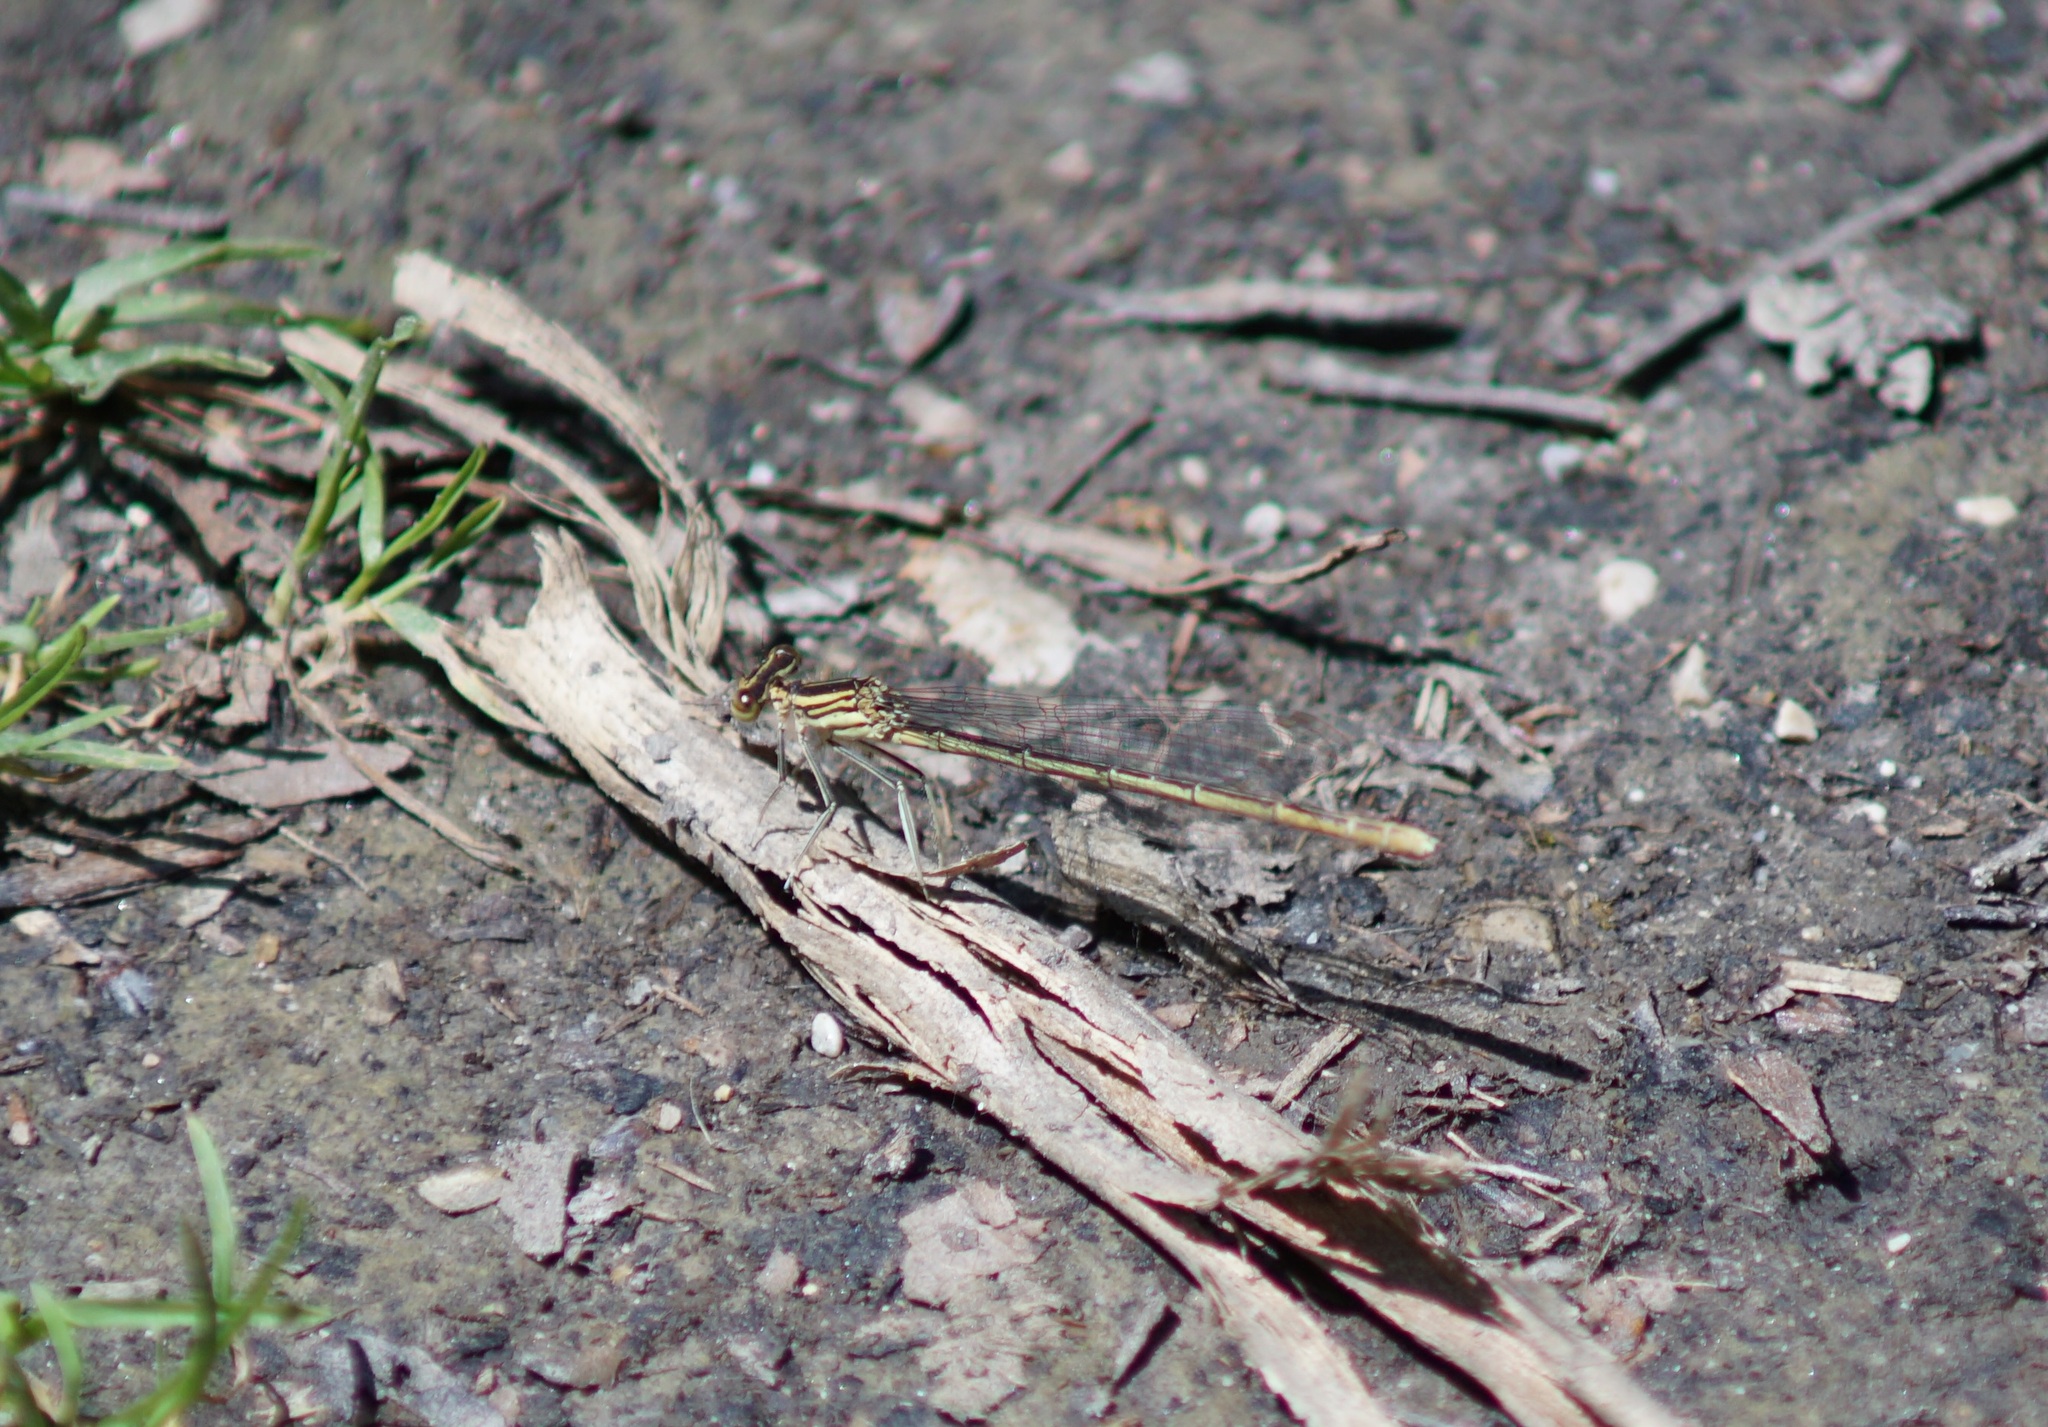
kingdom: Animalia
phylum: Arthropoda
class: Insecta
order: Odonata
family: Platycnemididae
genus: Platycnemis
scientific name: Platycnemis pennipes
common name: White-legged damselfly
